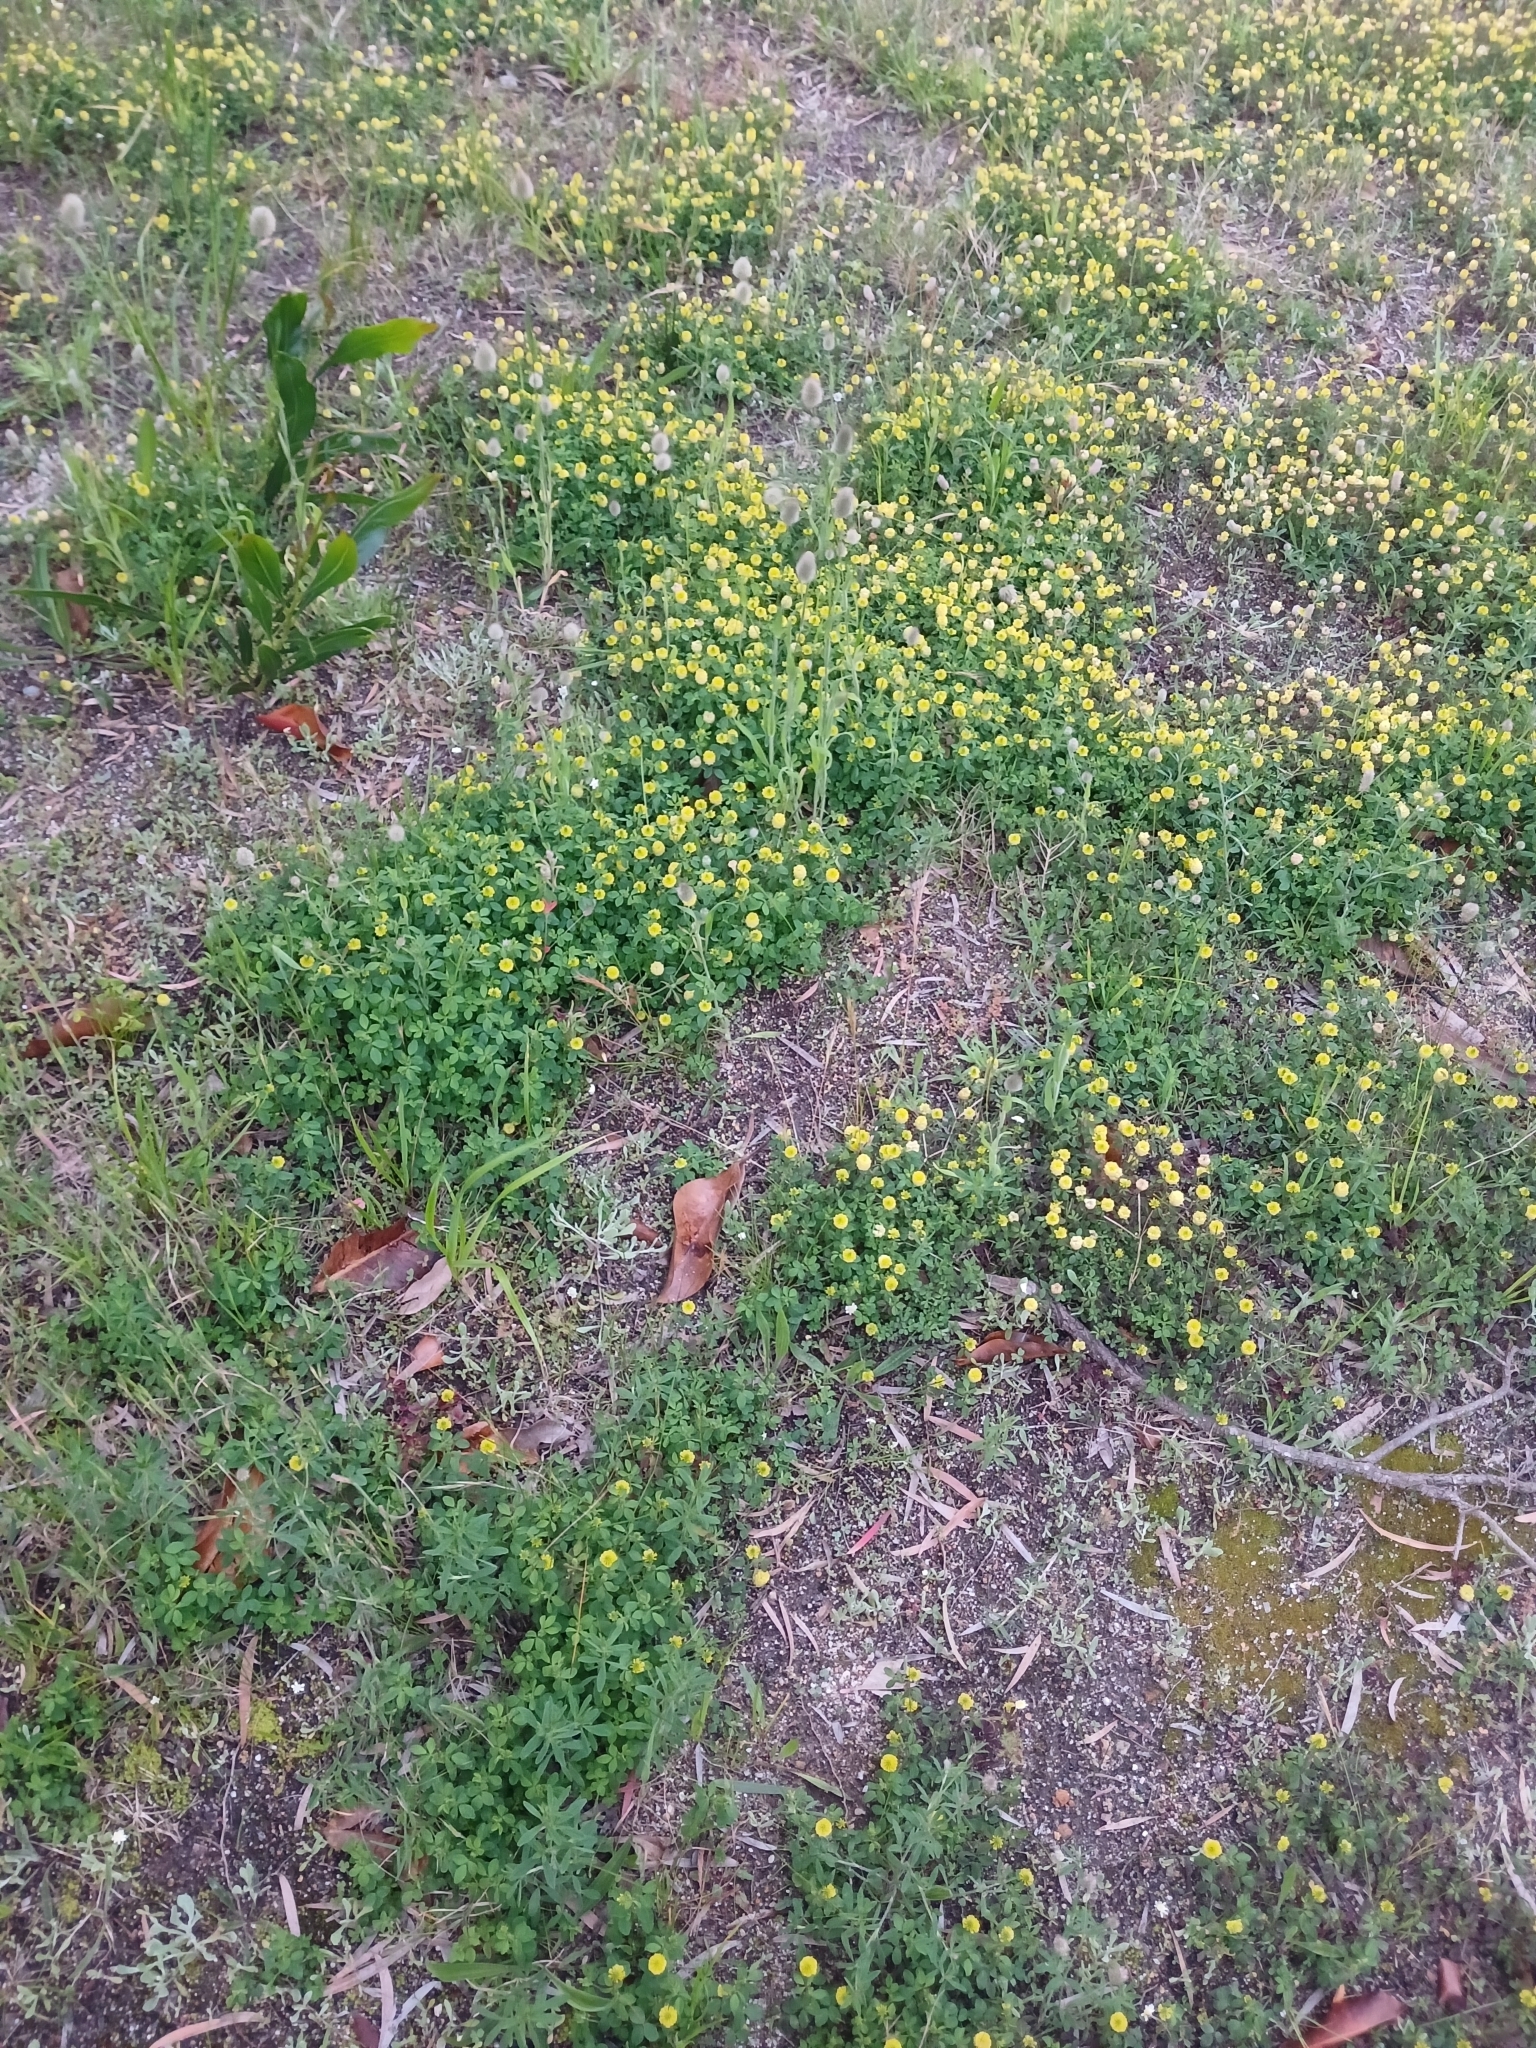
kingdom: Plantae
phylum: Tracheophyta
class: Magnoliopsida
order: Fabales
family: Fabaceae
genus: Trifolium
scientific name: Trifolium campestre
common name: Field clover
